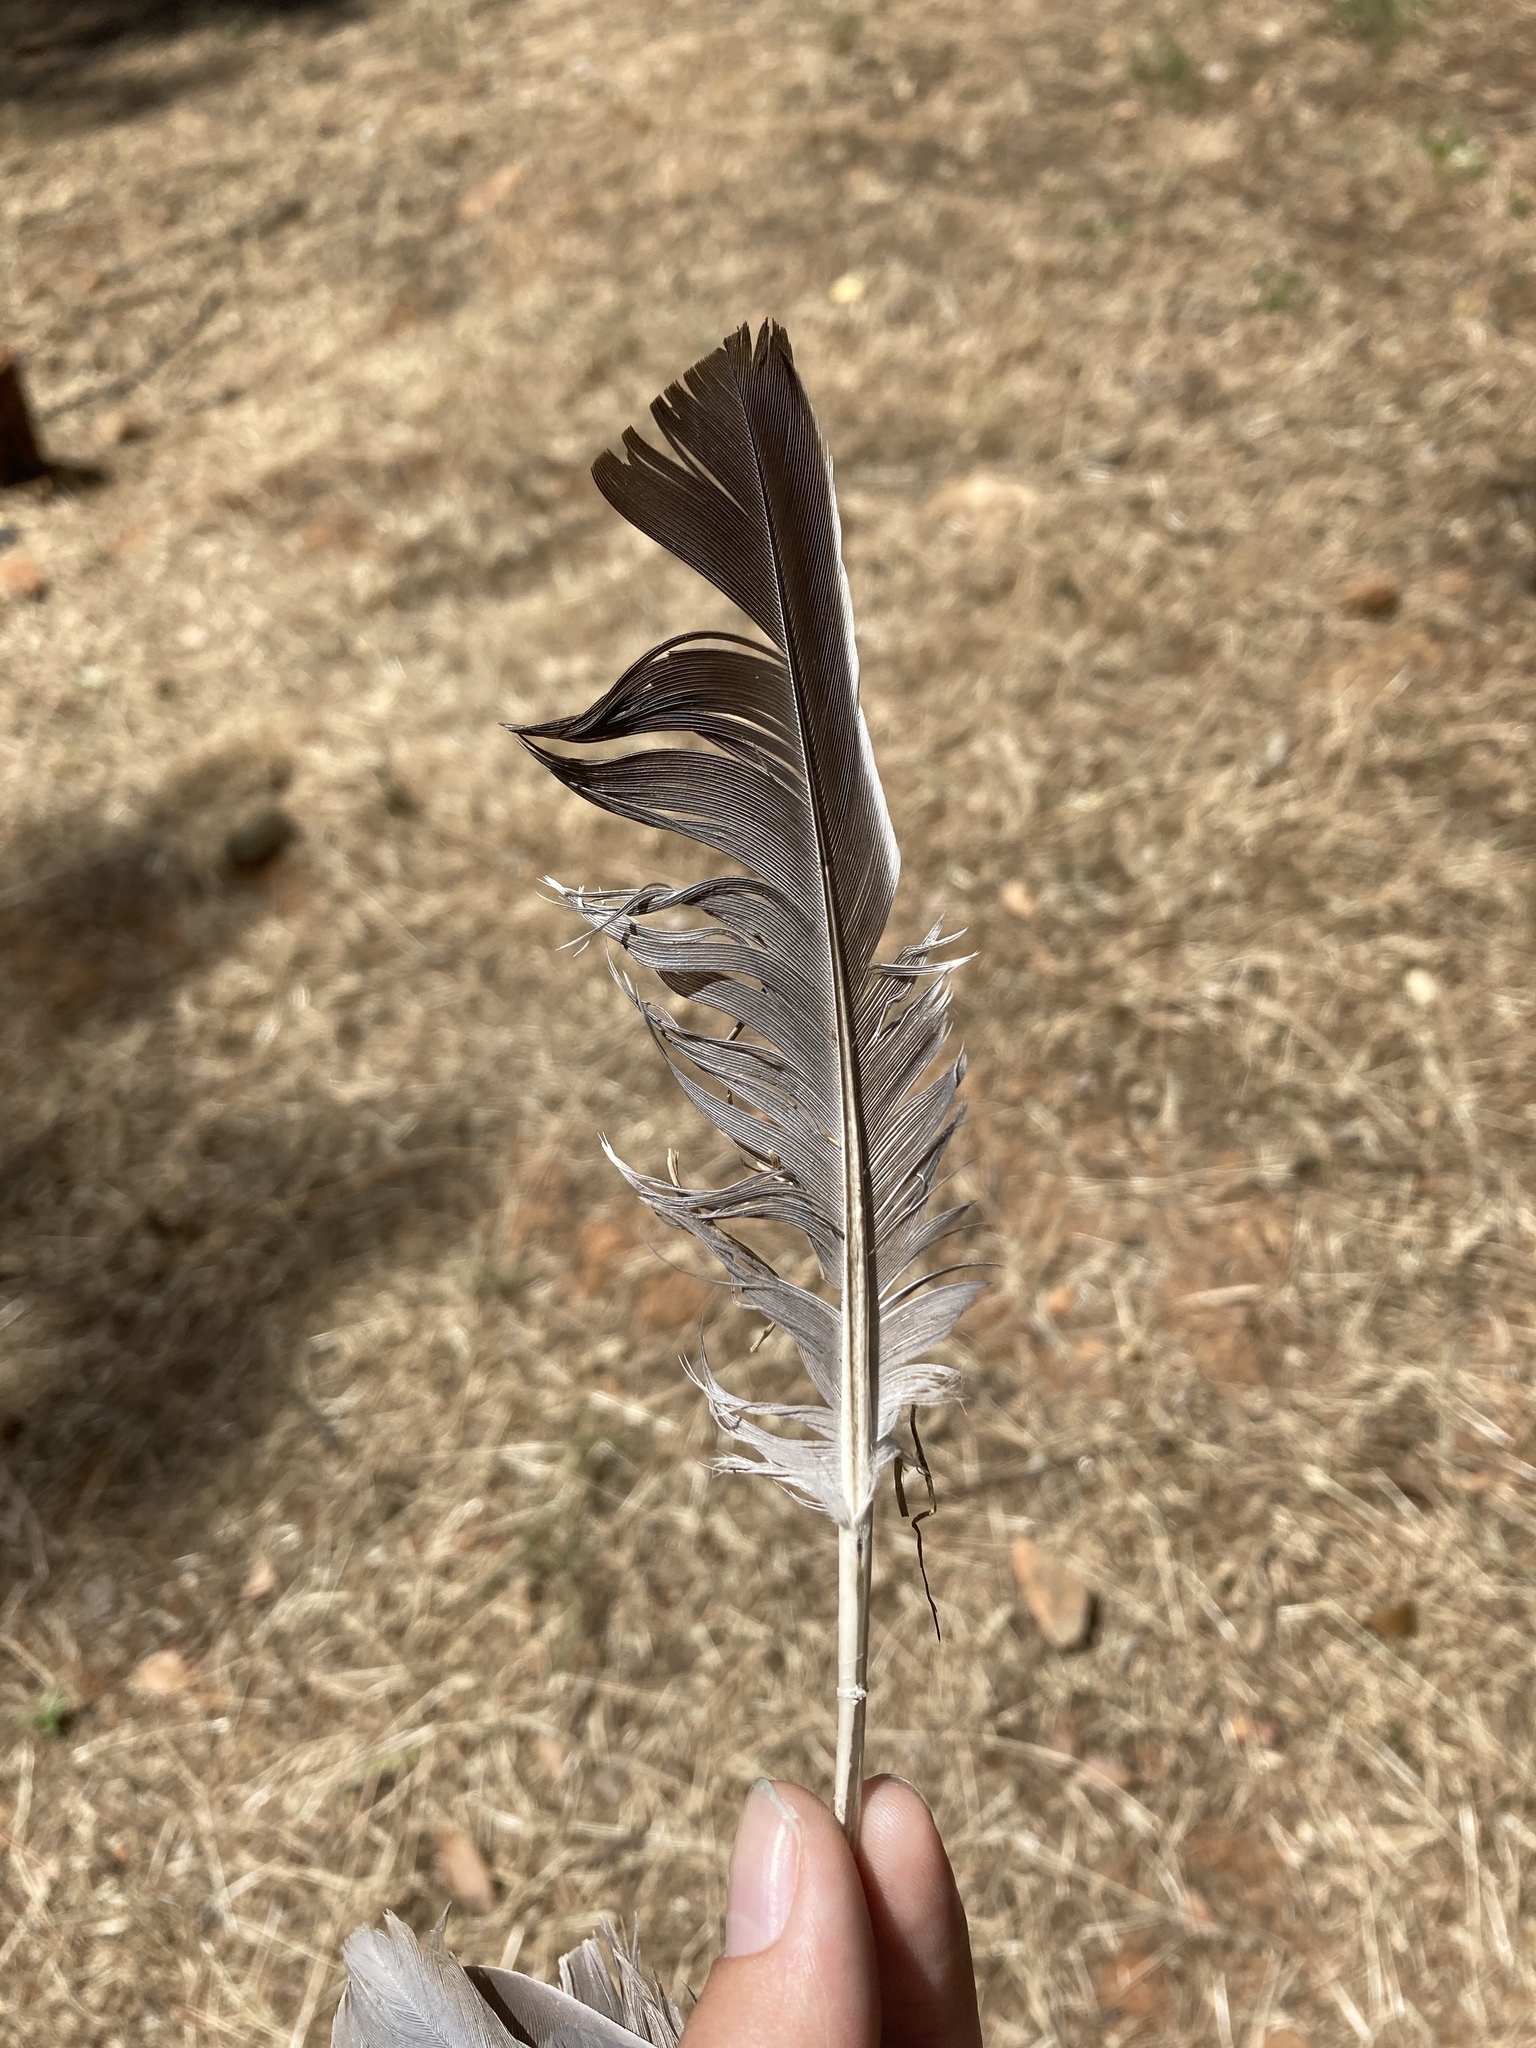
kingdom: Animalia
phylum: Chordata
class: Aves
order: Columbiformes
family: Columbidae
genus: Columba
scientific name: Columba palumbus
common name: Common wood pigeon
